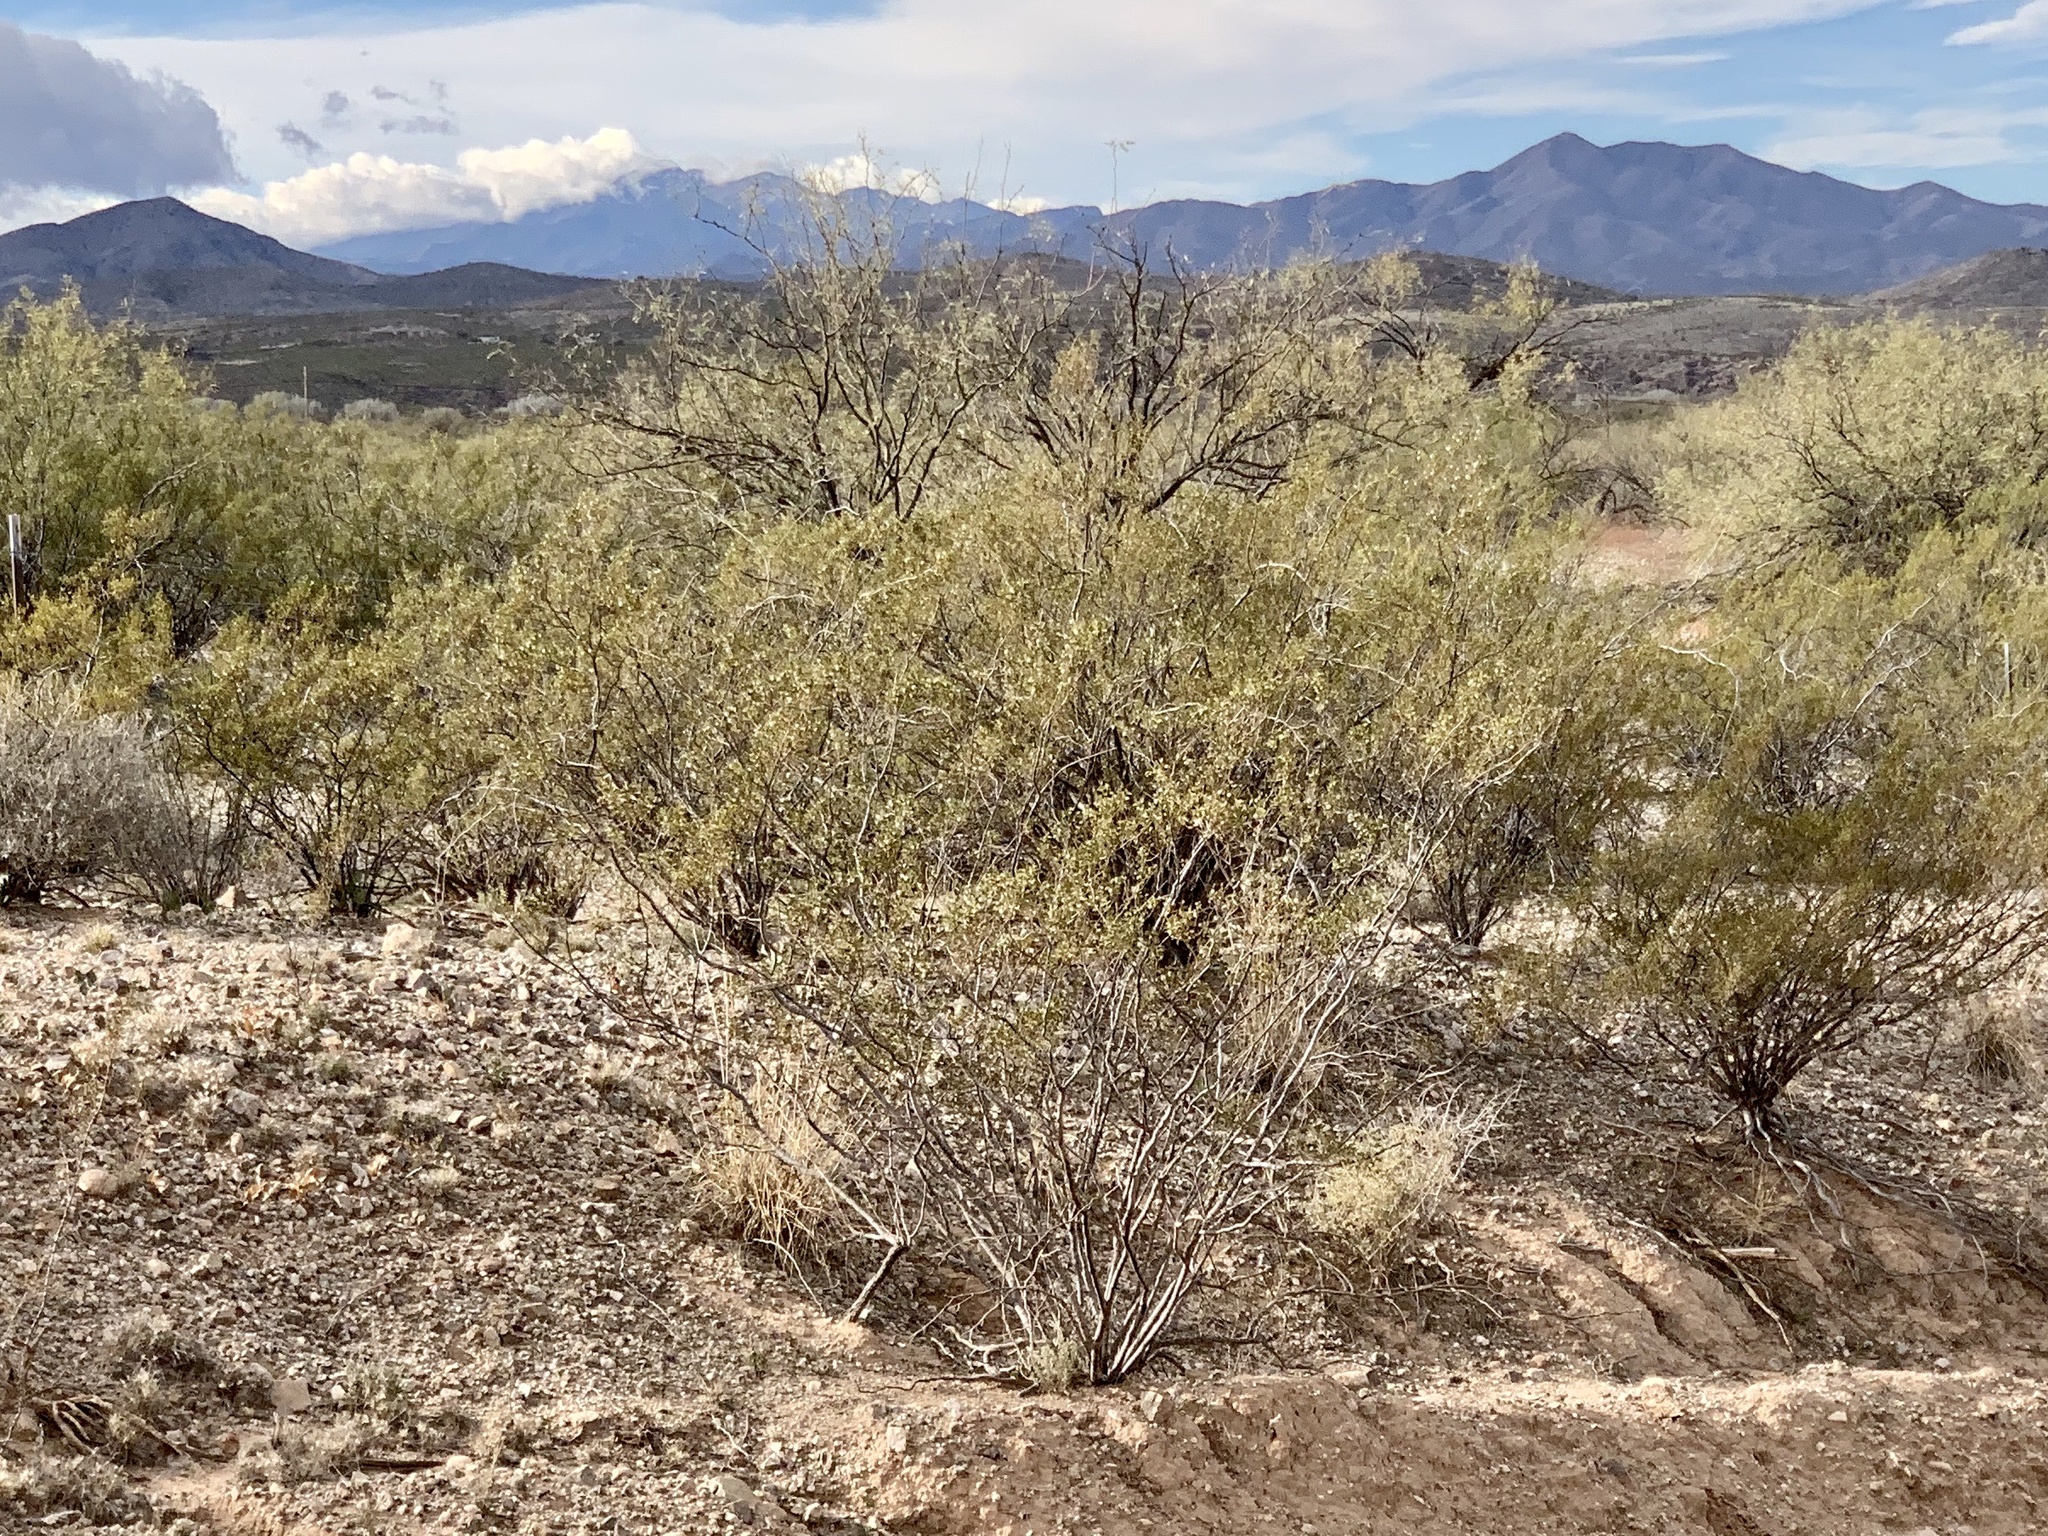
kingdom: Plantae
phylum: Tracheophyta
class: Magnoliopsida
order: Zygophyllales
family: Zygophyllaceae
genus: Larrea
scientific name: Larrea tridentata
